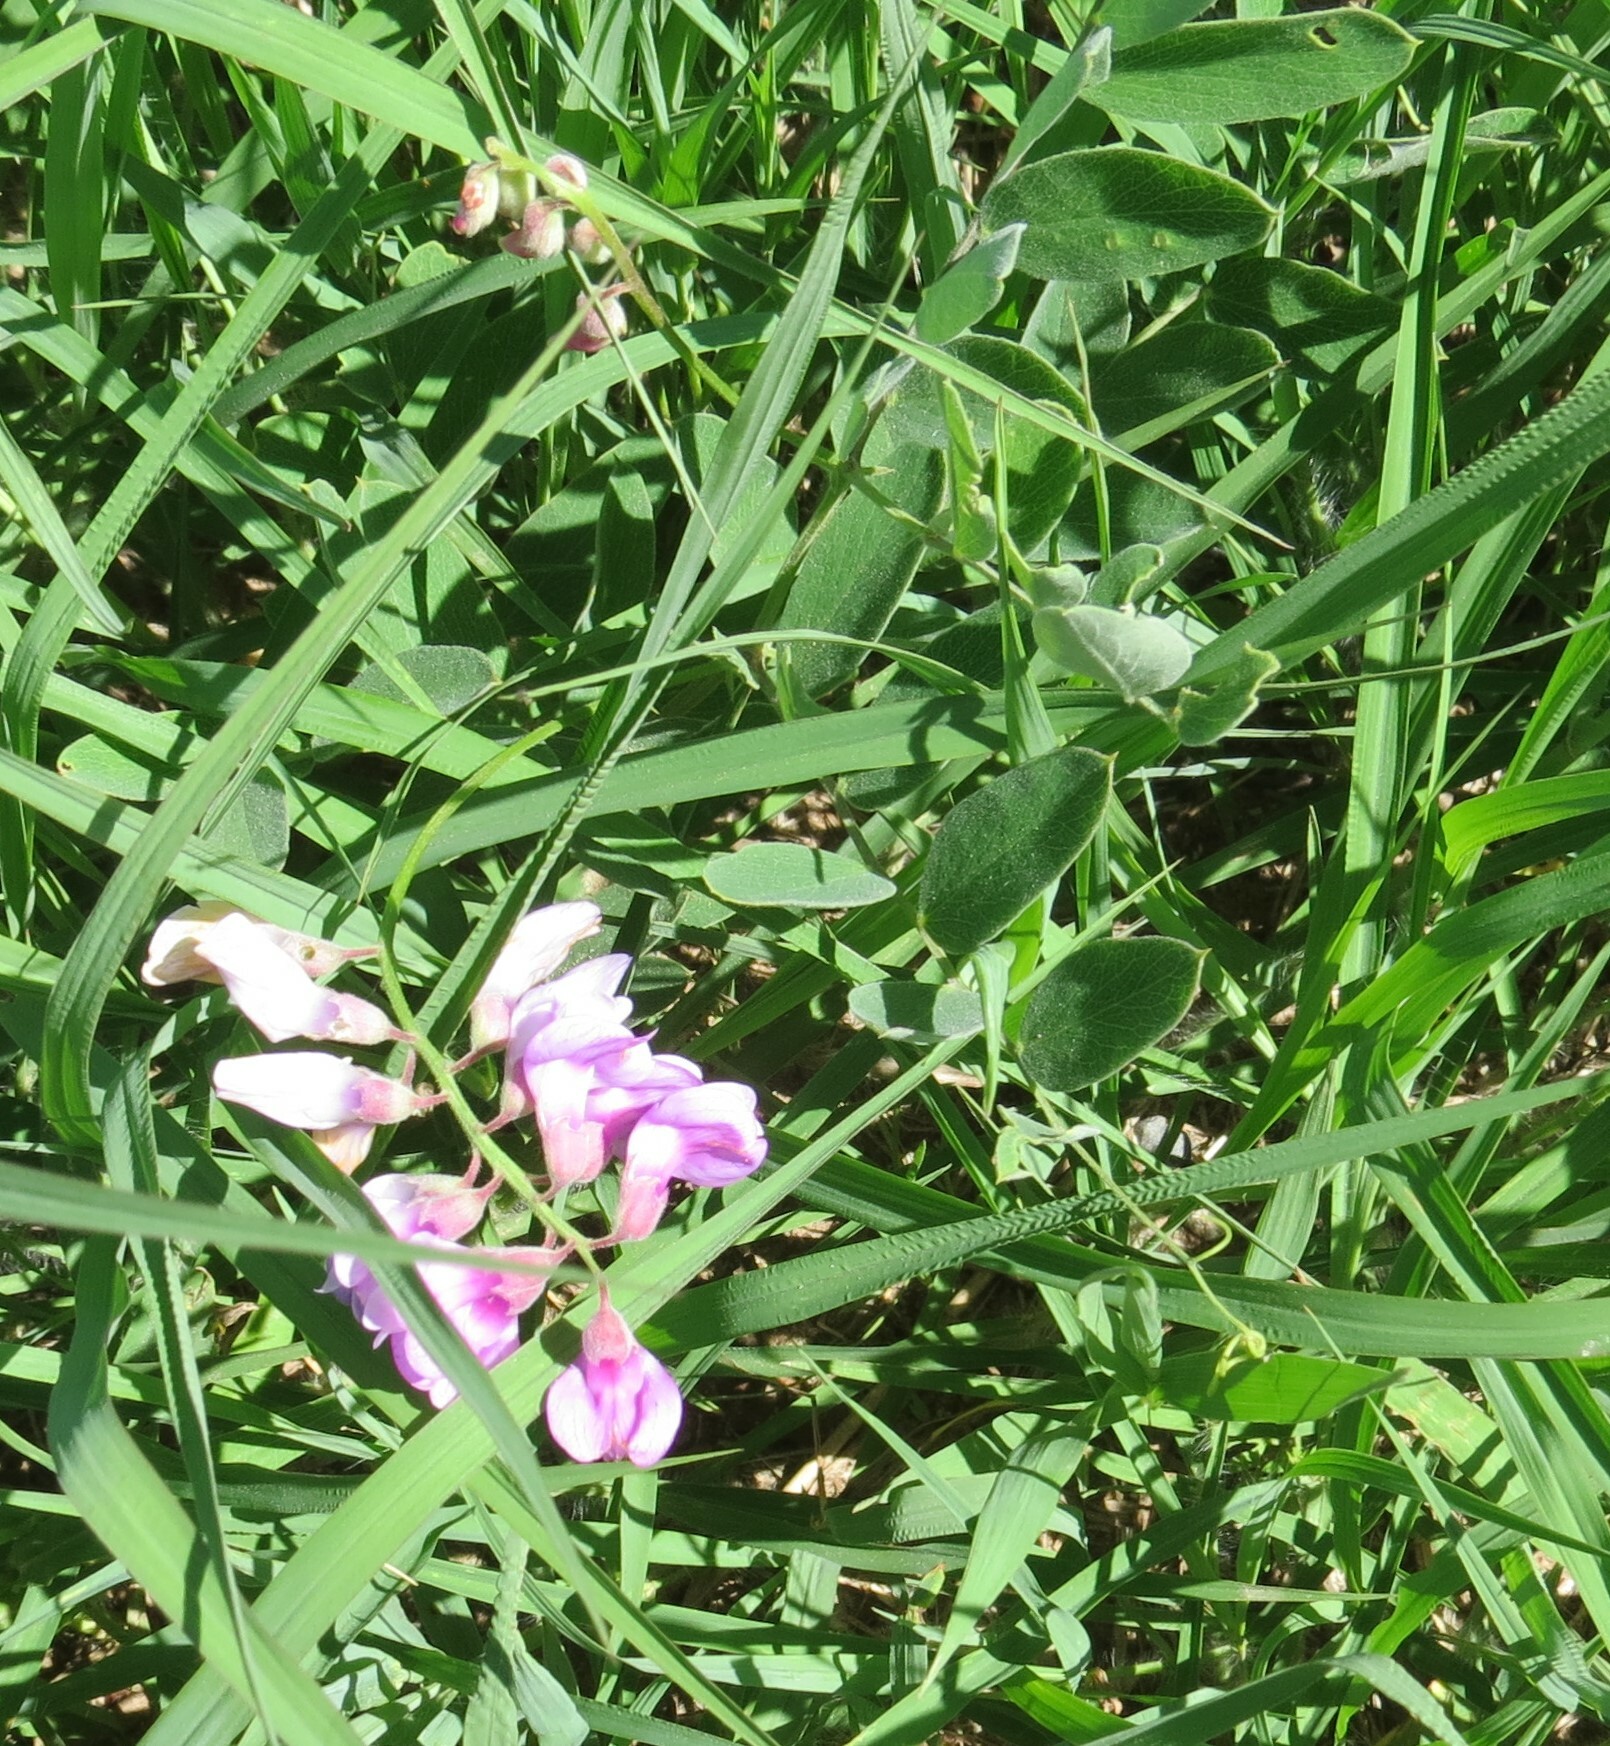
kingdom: Plantae
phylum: Tracheophyta
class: Magnoliopsida
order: Fabales
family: Fabaceae
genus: Lathyrus
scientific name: Lathyrus venosus
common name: Forest-pea
